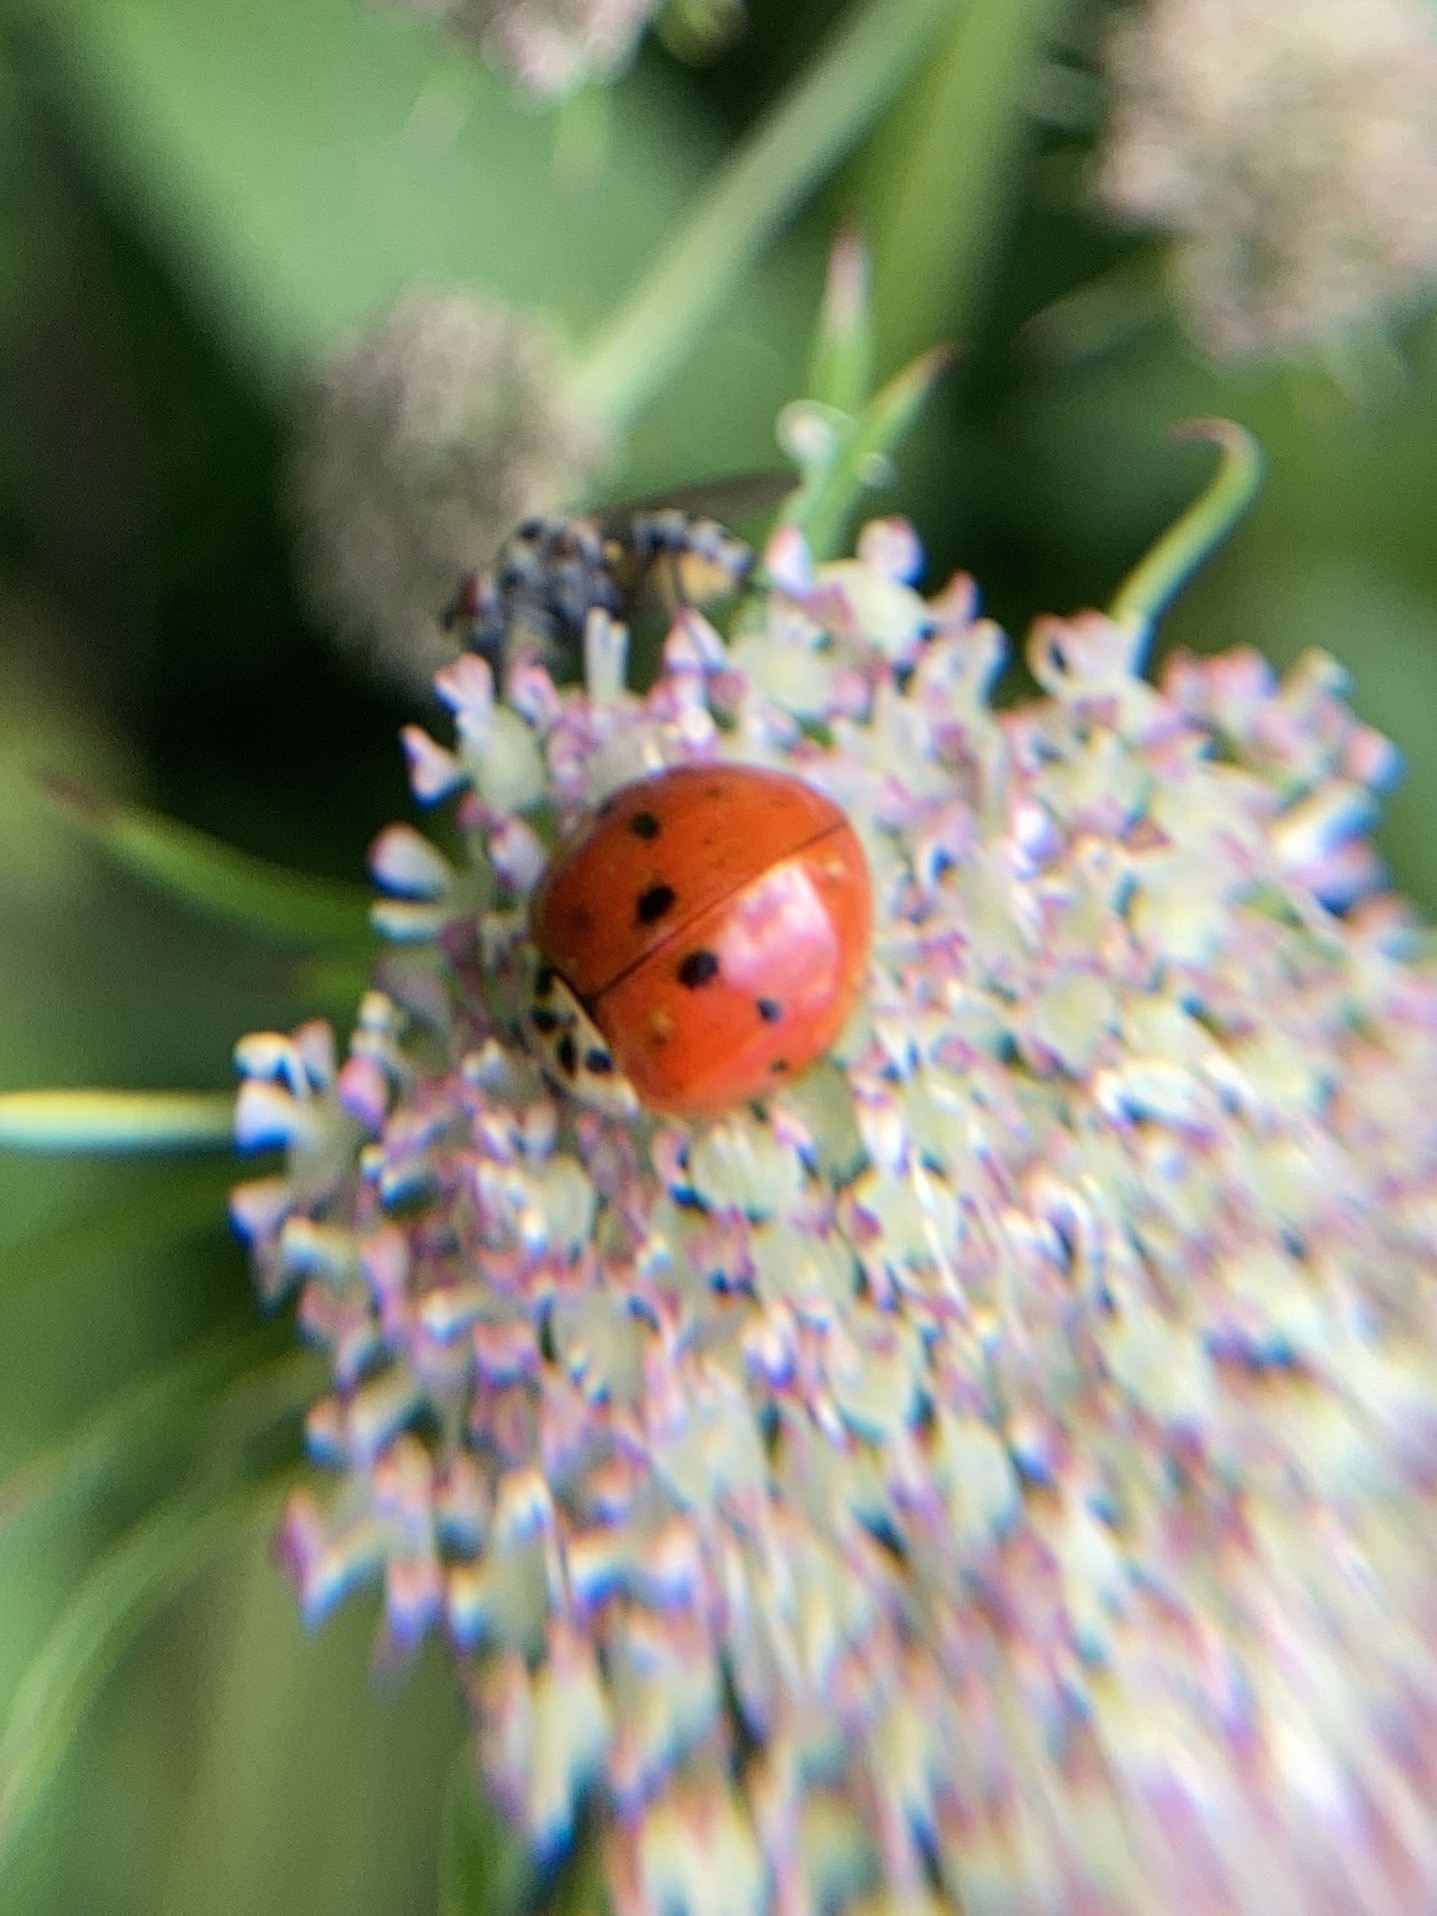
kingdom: Animalia
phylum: Arthropoda
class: Insecta
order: Coleoptera
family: Coccinellidae
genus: Harmonia
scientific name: Harmonia axyridis
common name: Harlequin ladybird
